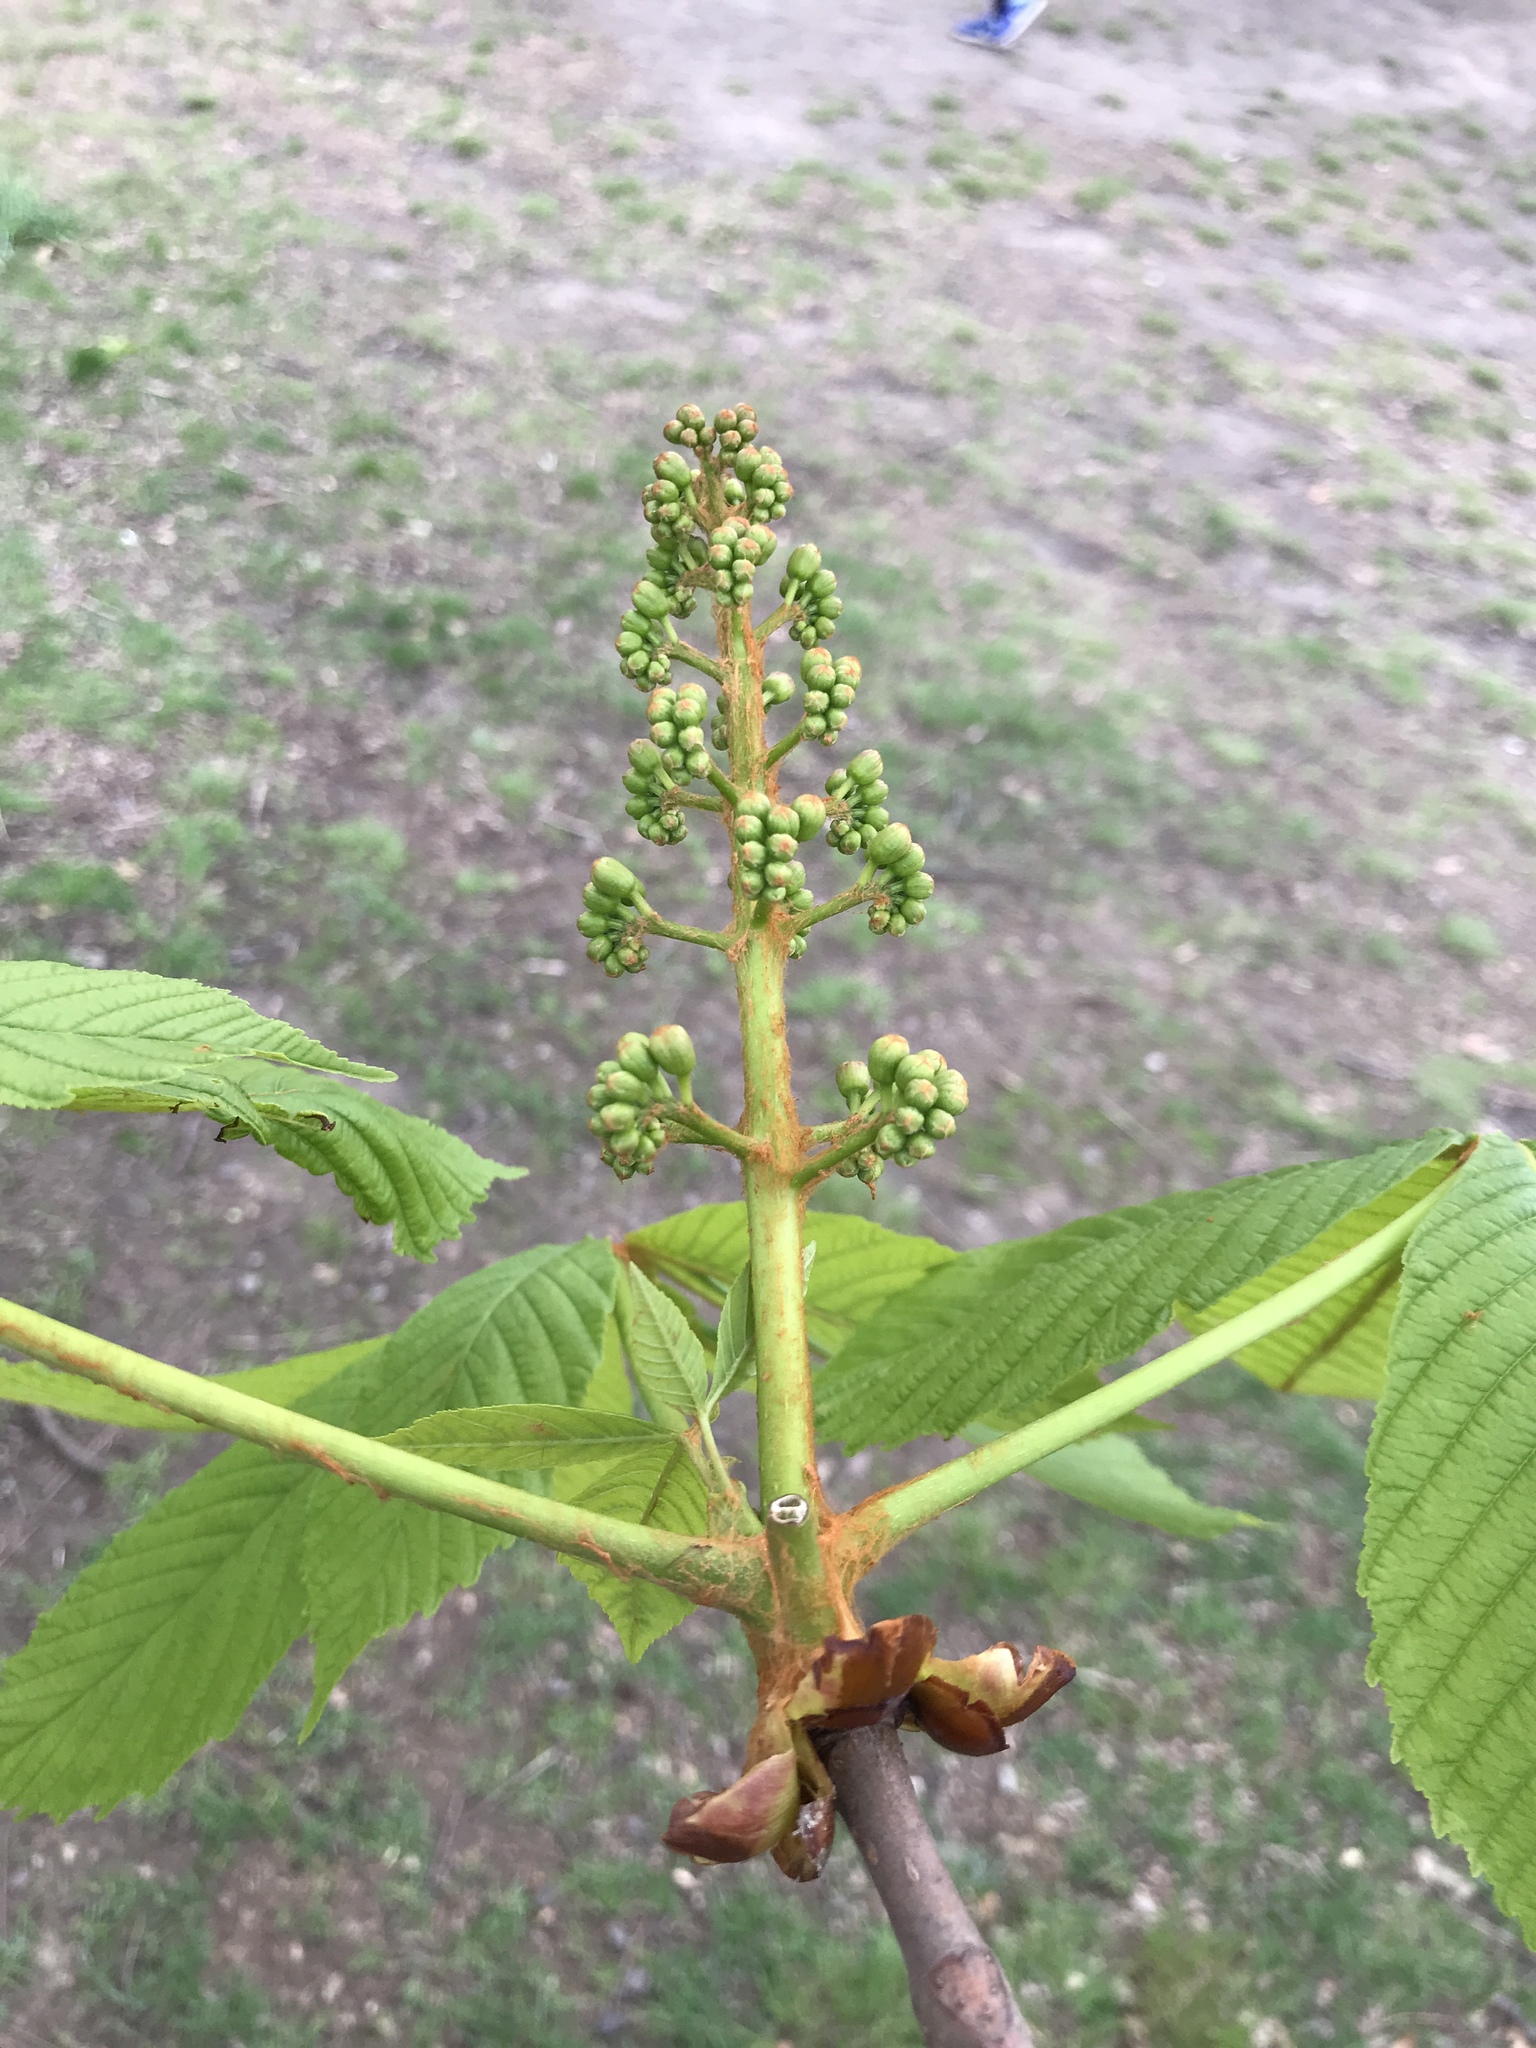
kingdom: Plantae
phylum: Tracheophyta
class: Magnoliopsida
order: Sapindales
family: Sapindaceae
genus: Aesculus
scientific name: Aesculus hippocastanum
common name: Horse-chestnut
